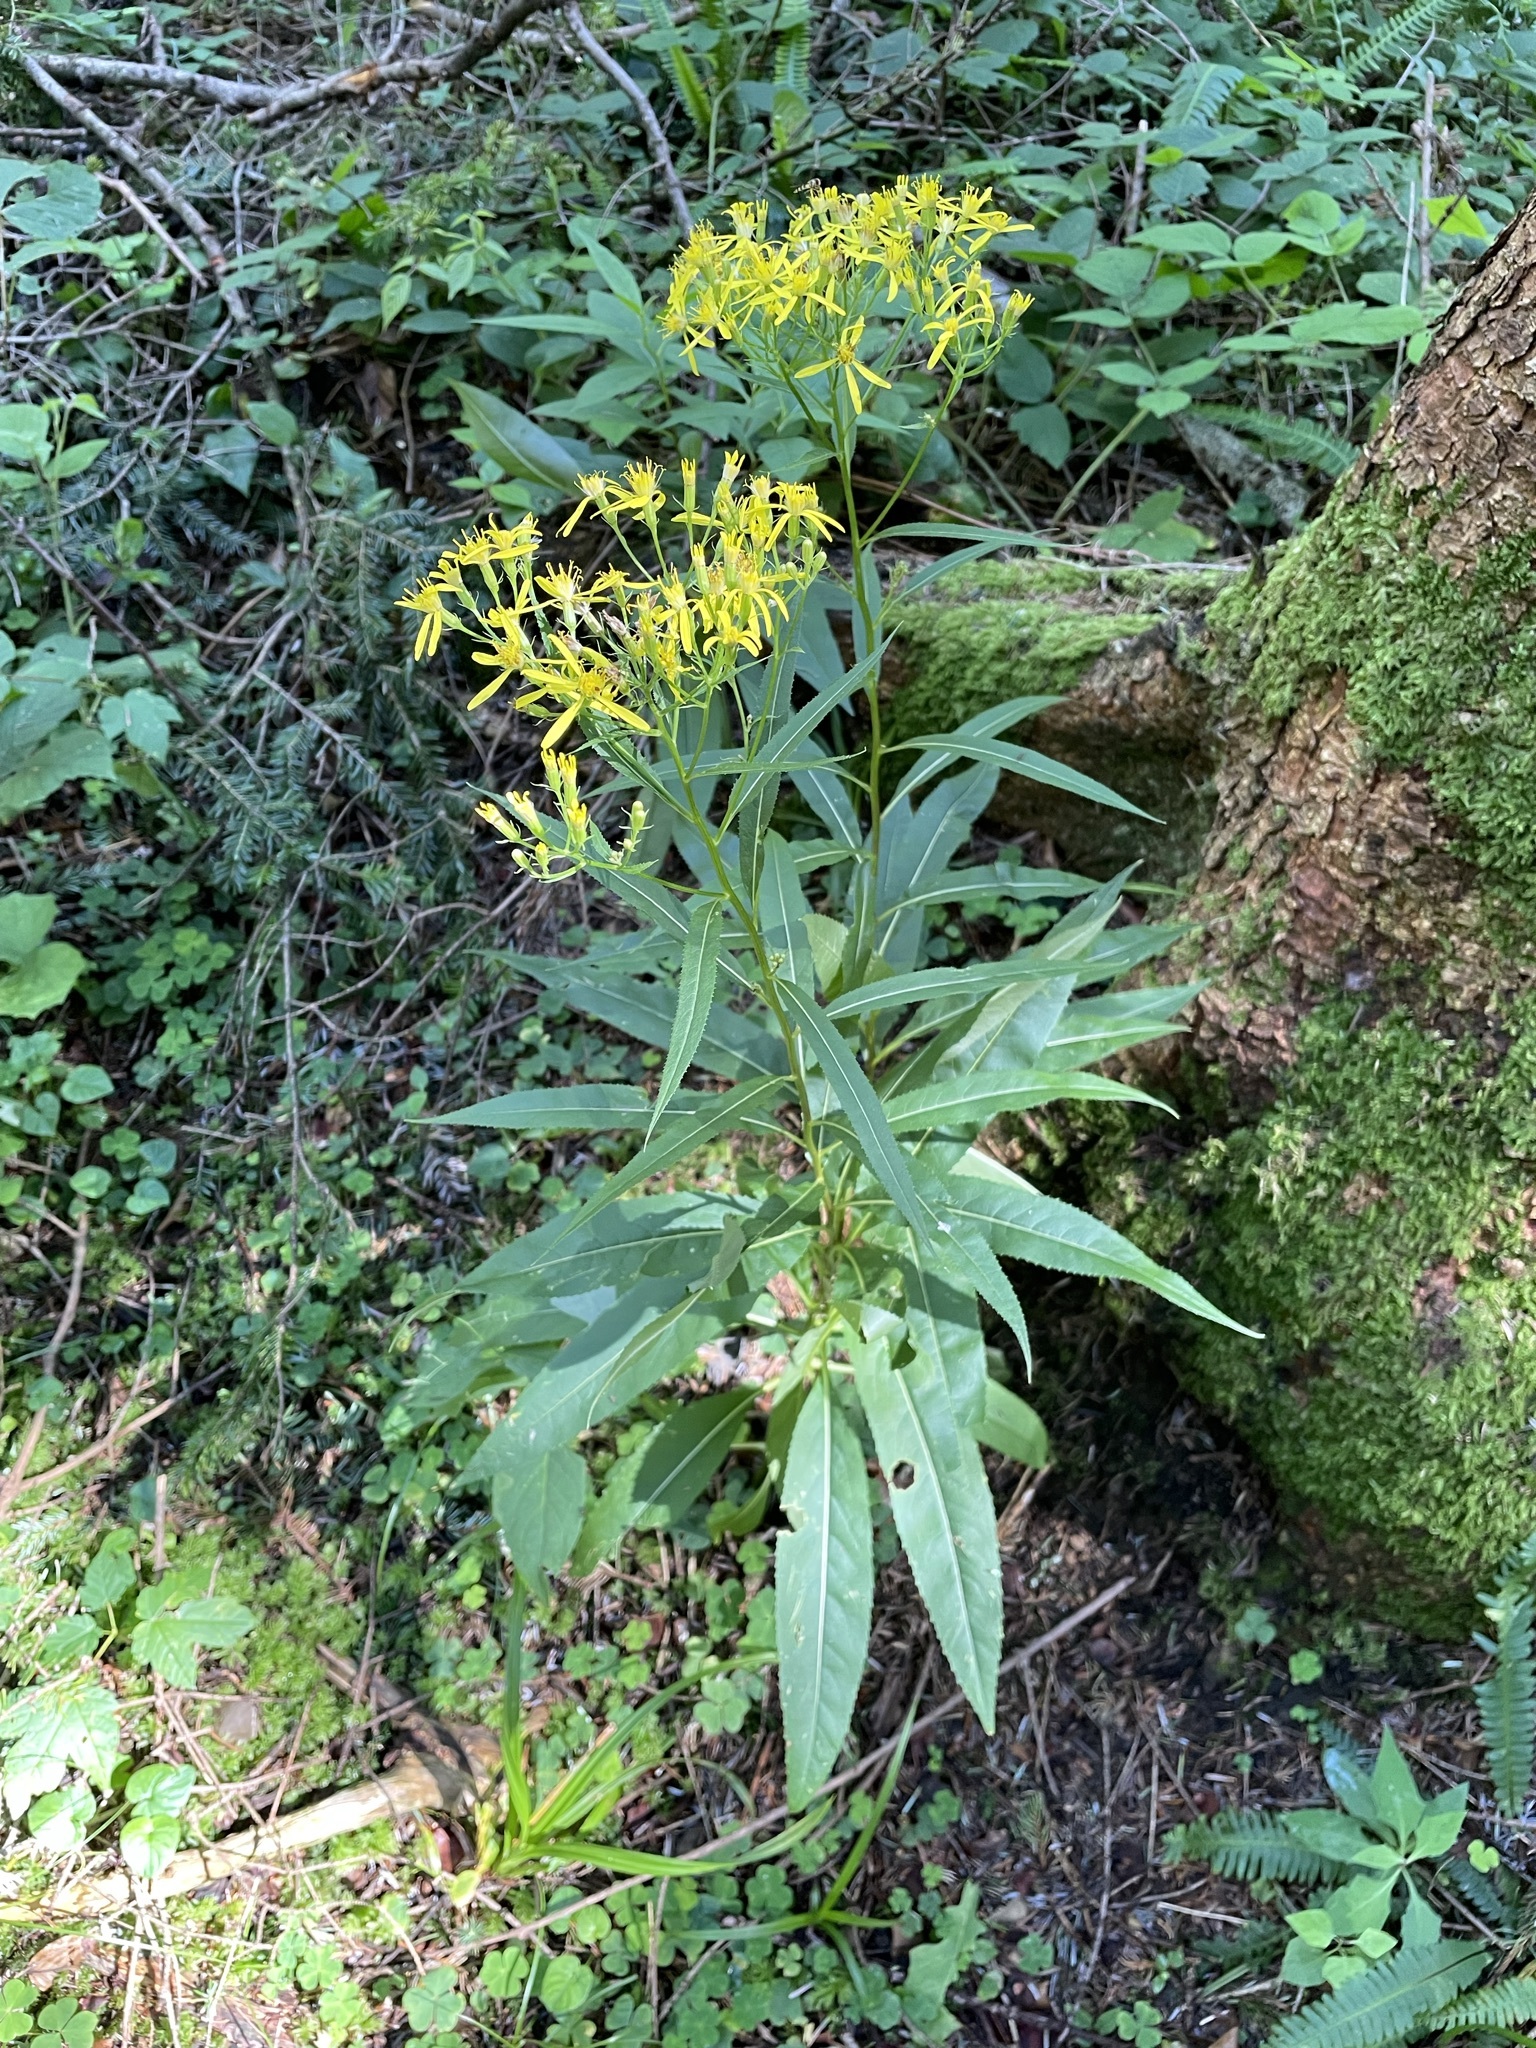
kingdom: Plantae
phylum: Tracheophyta
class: Magnoliopsida
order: Asterales
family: Asteraceae
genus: Senecio
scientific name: Senecio ovatus
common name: Wood ragwort
